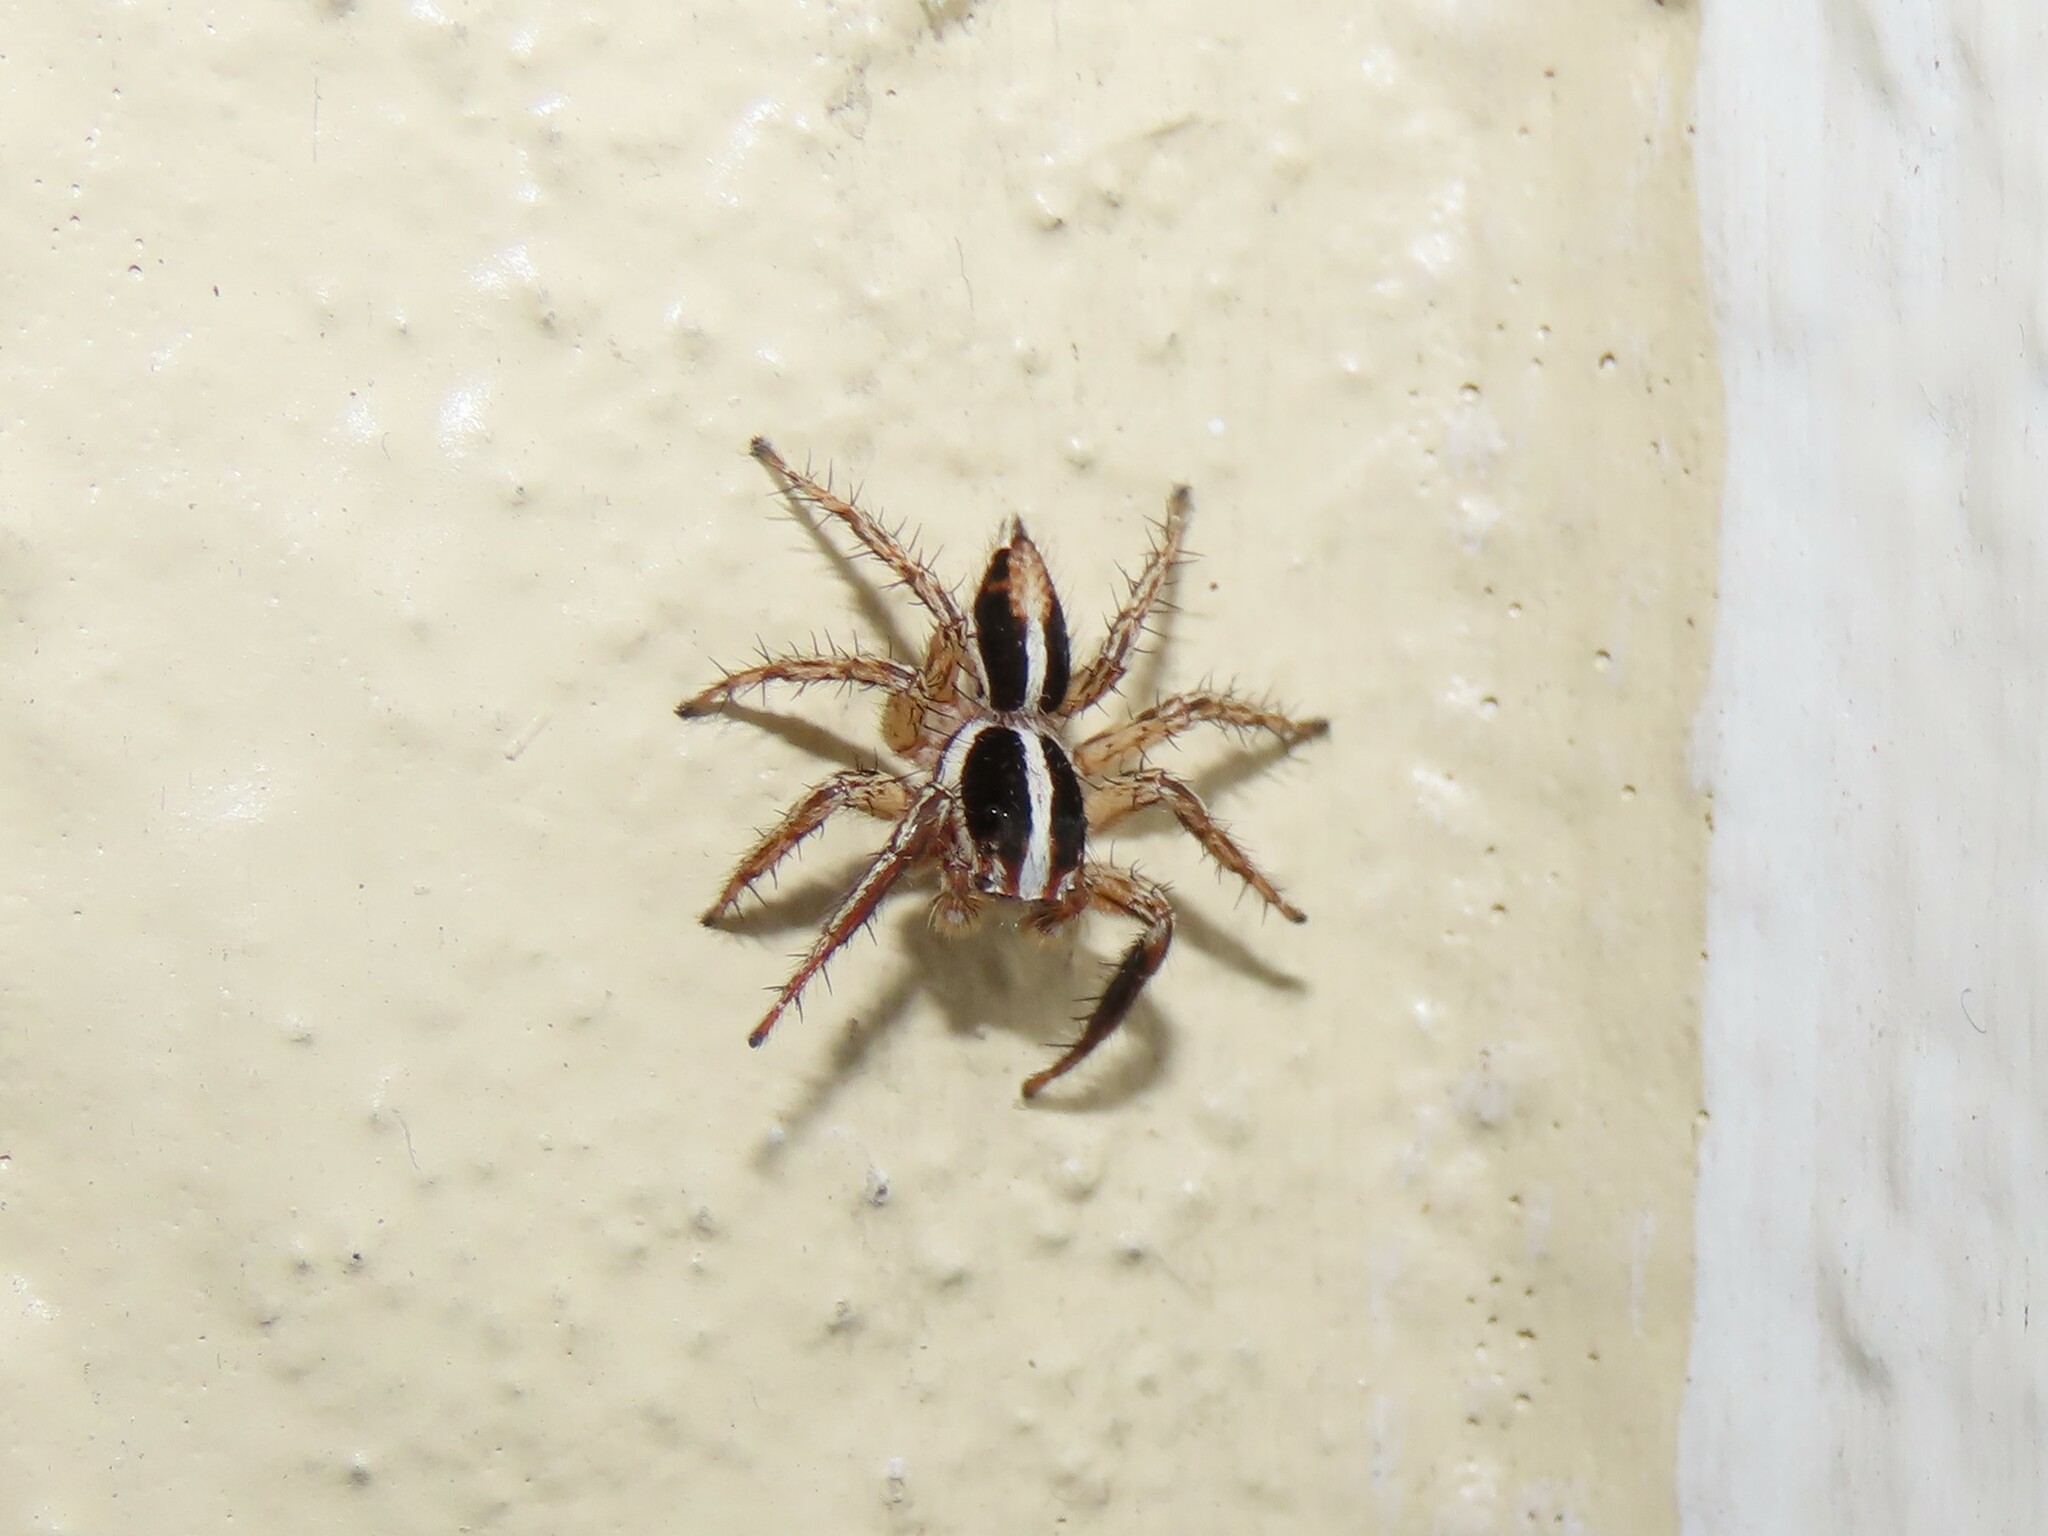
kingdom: Animalia
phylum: Arthropoda
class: Arachnida
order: Araneae
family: Salticidae
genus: Plexippus
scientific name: Plexippus paykulli
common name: Pantropical jumper
